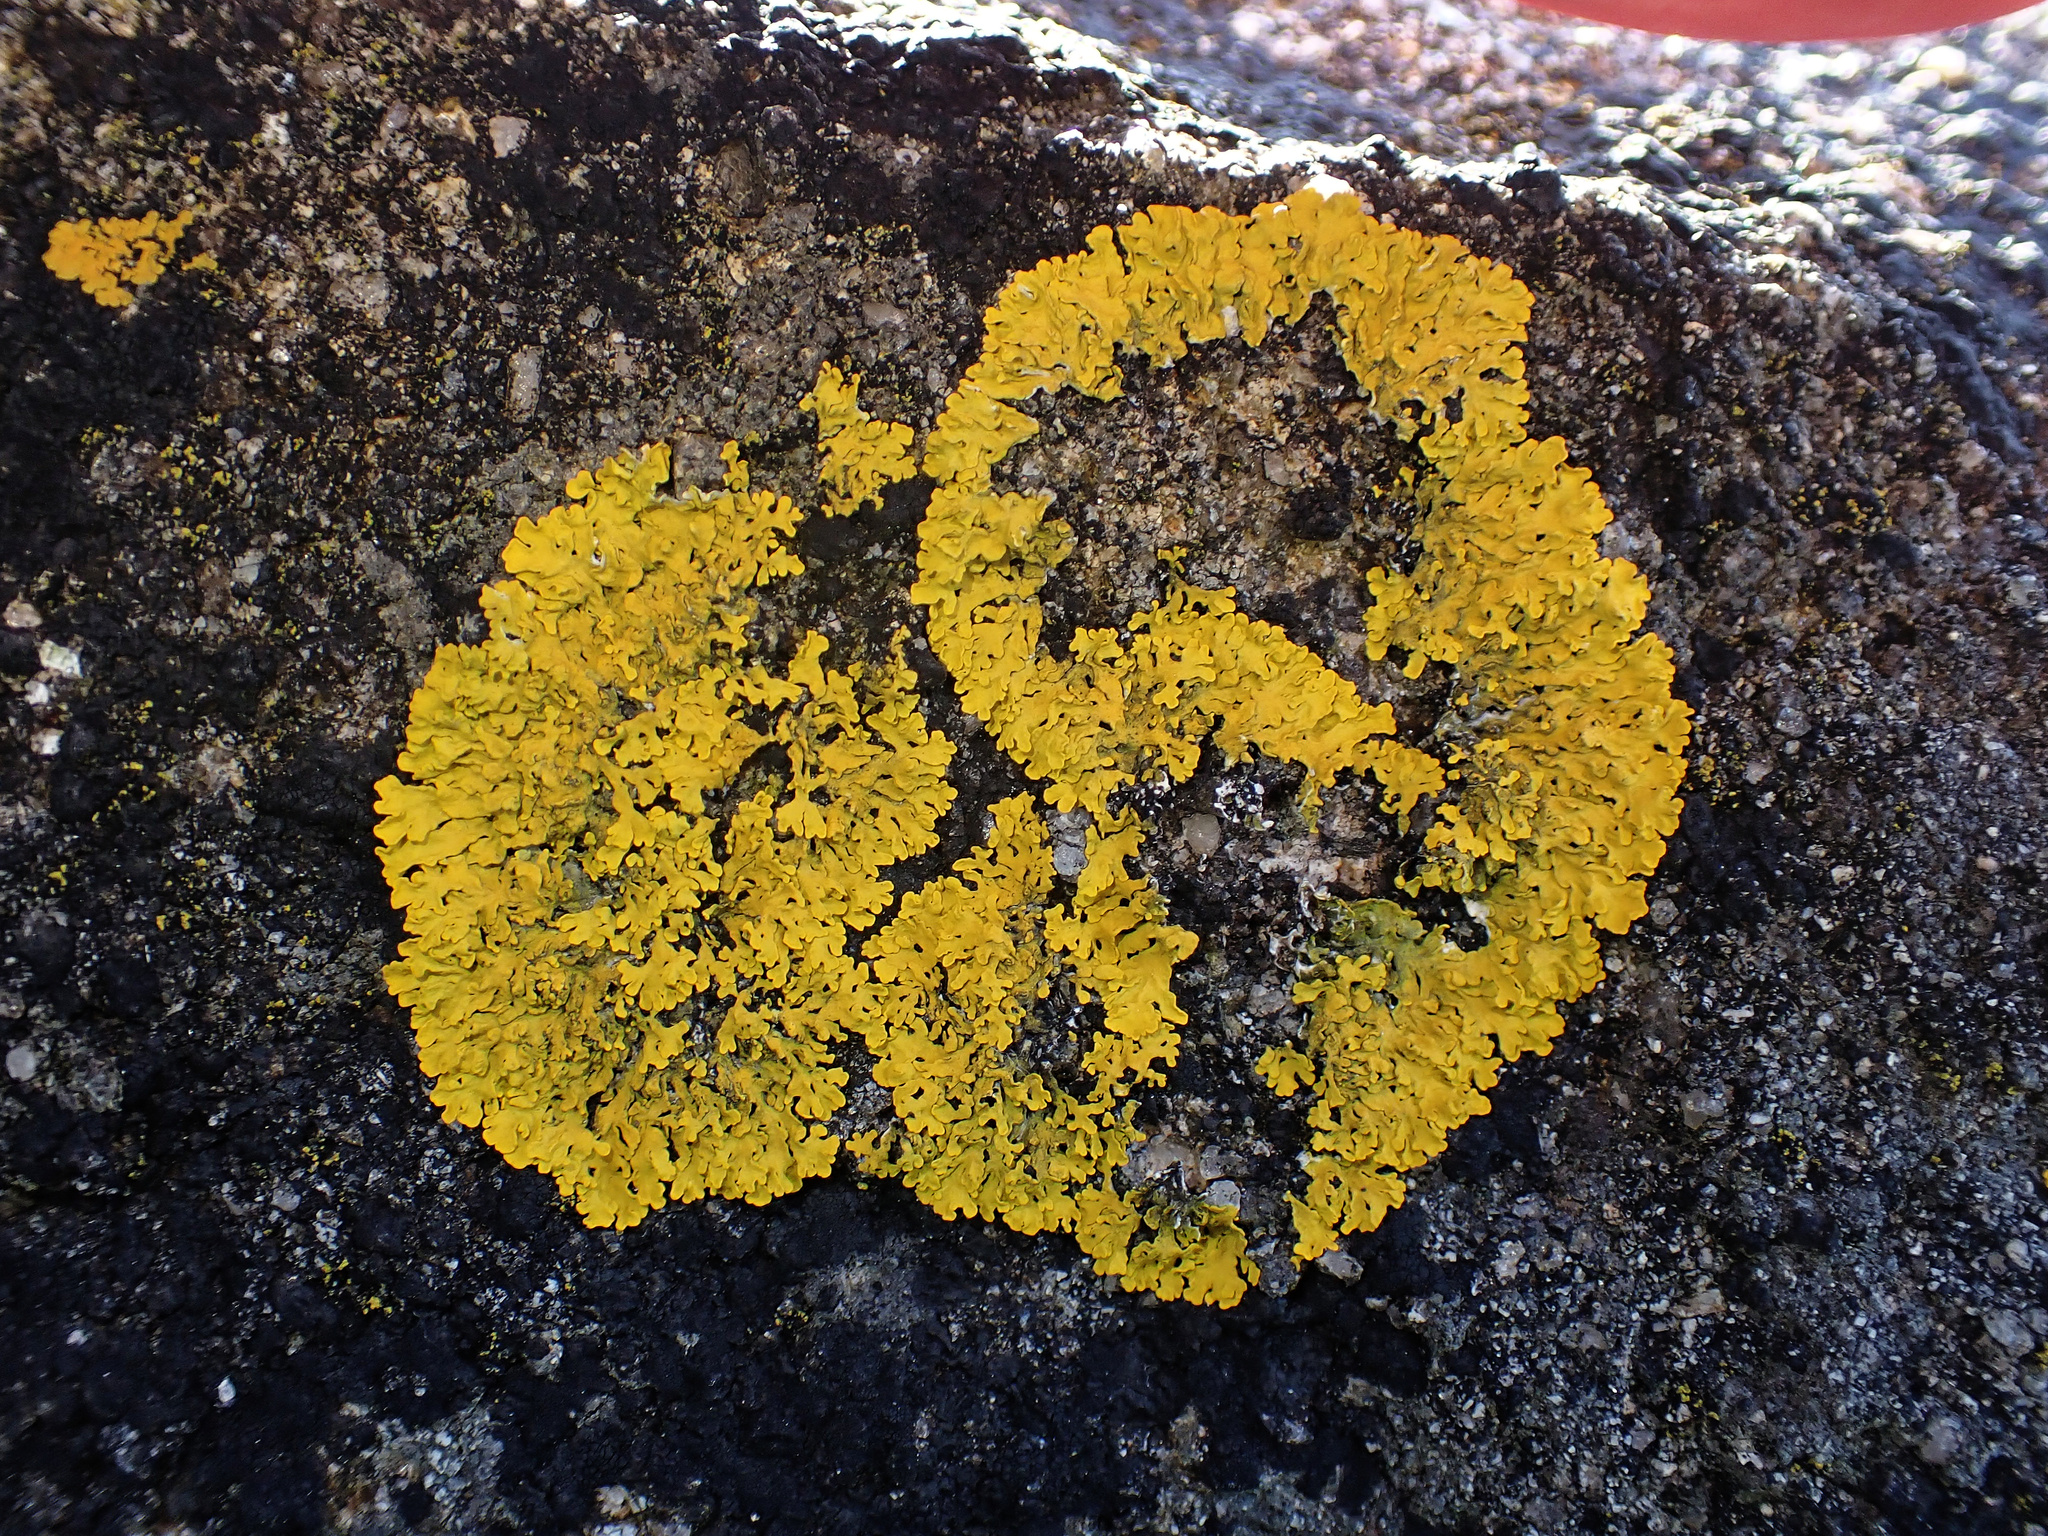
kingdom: Fungi
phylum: Ascomycota
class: Lecanoromycetes
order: Teloschistales
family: Teloschistaceae
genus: Xanthoria
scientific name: Xanthoria aureola
